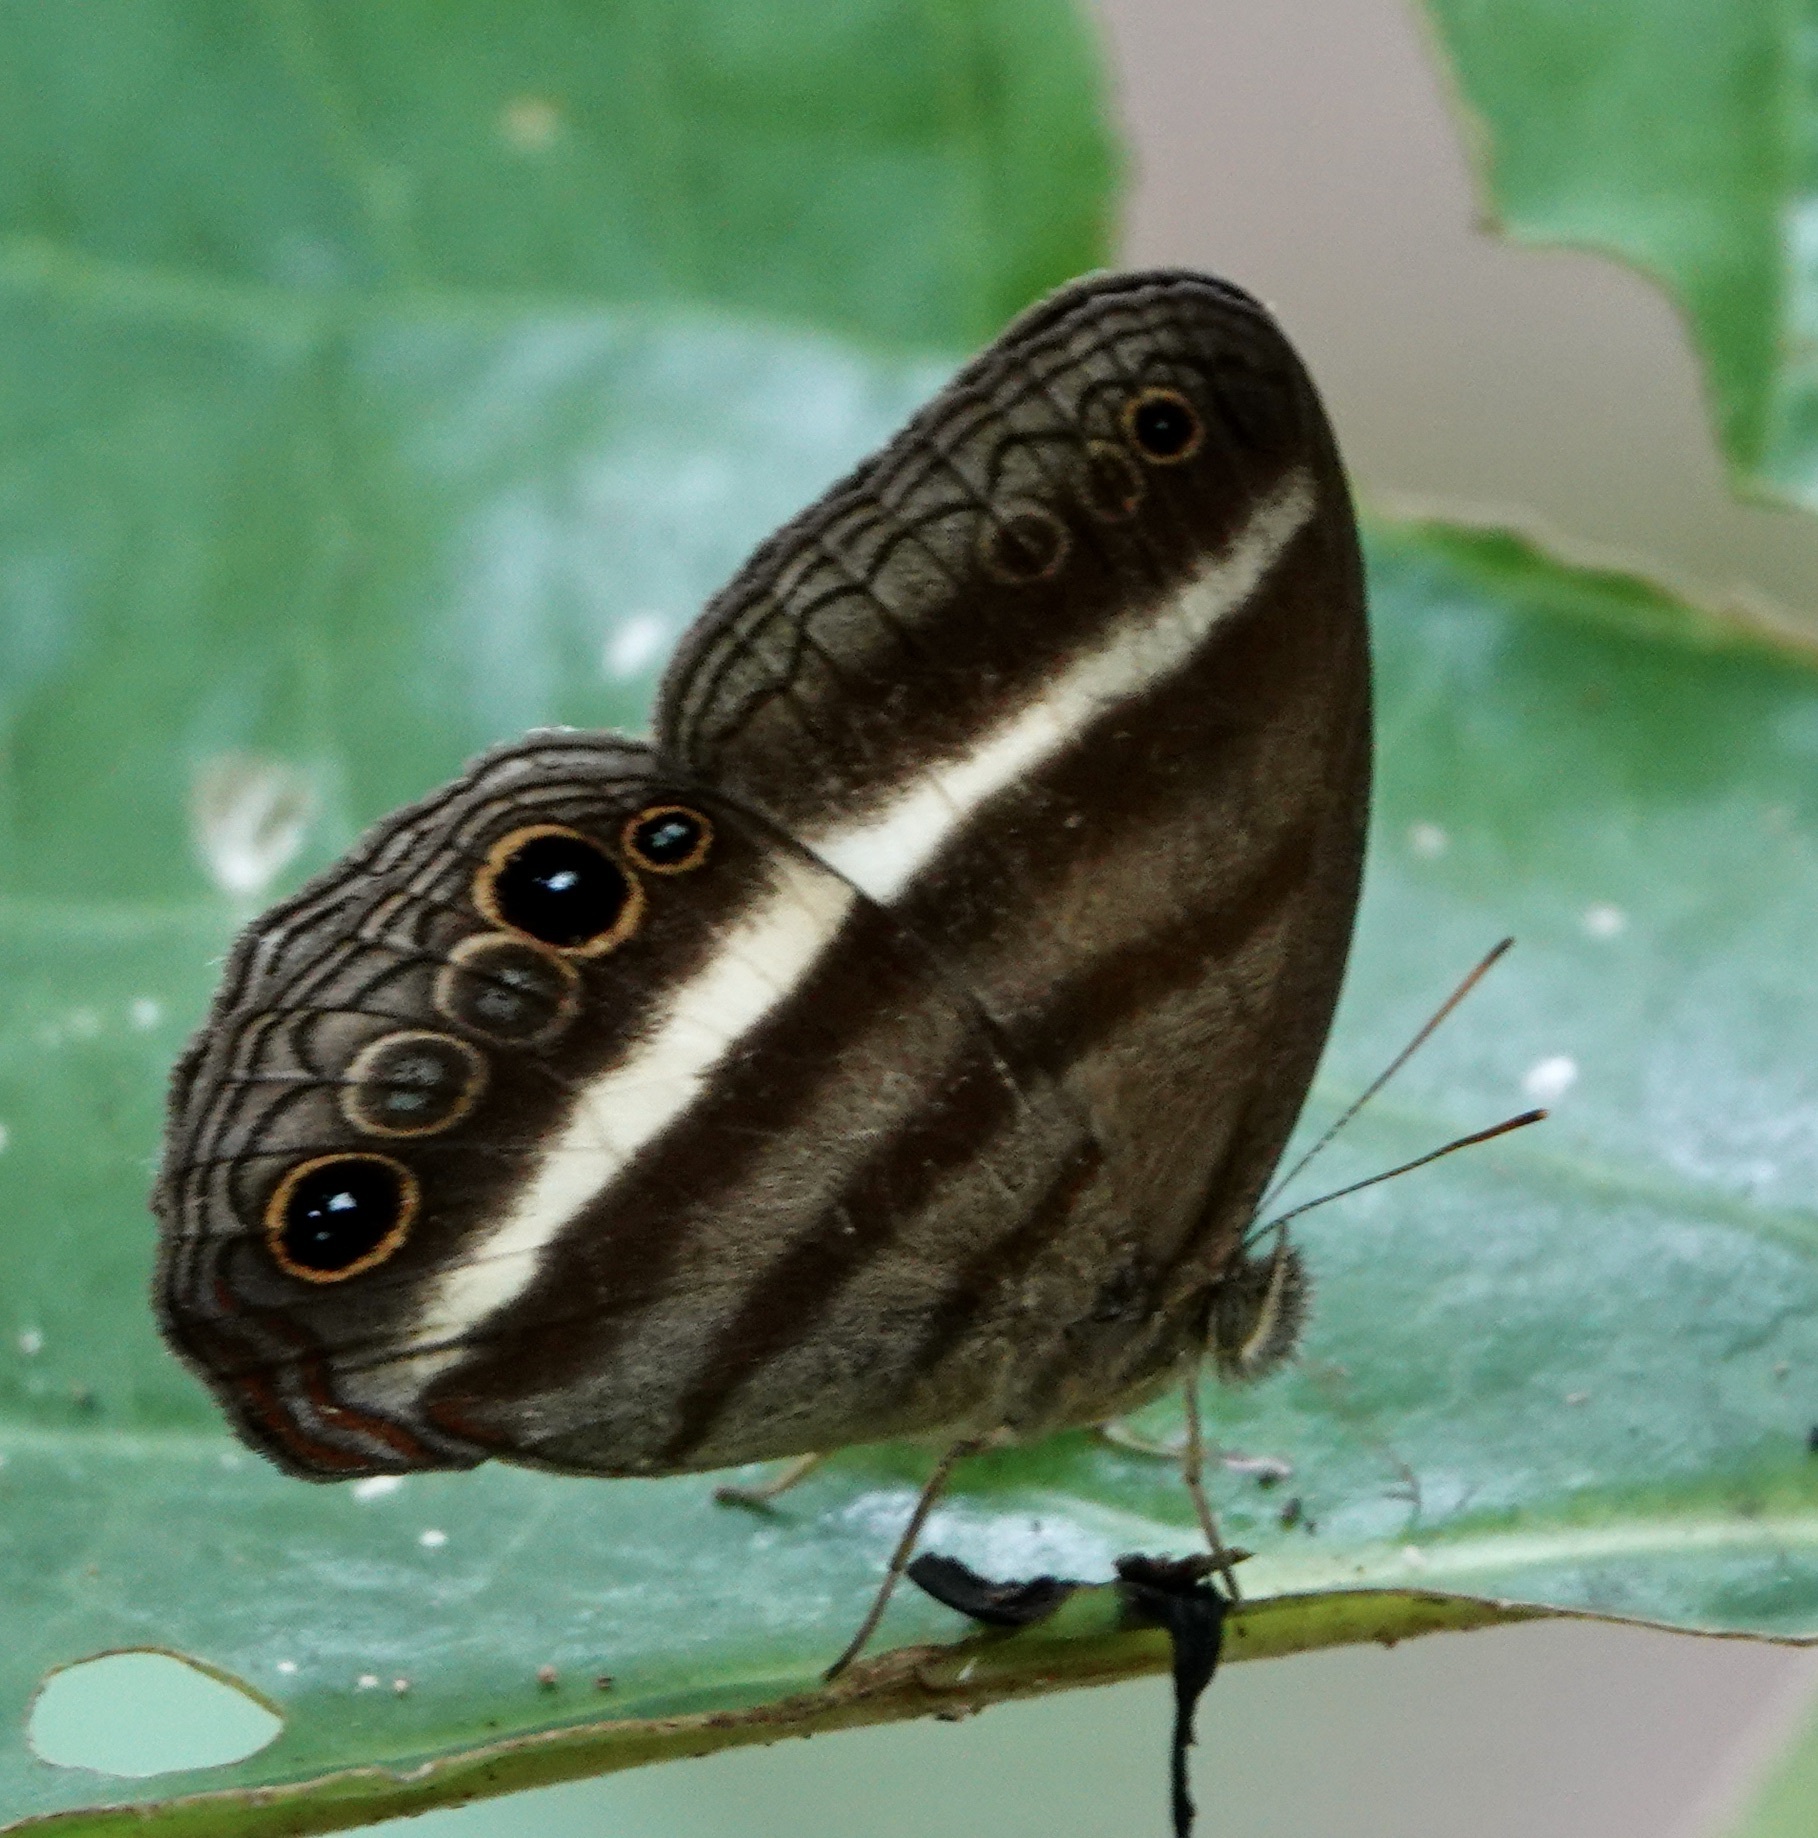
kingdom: Animalia
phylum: Arthropoda
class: Insecta
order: Lepidoptera
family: Nymphalidae
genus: Pareuptychia
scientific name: Pareuptychia summandosa
